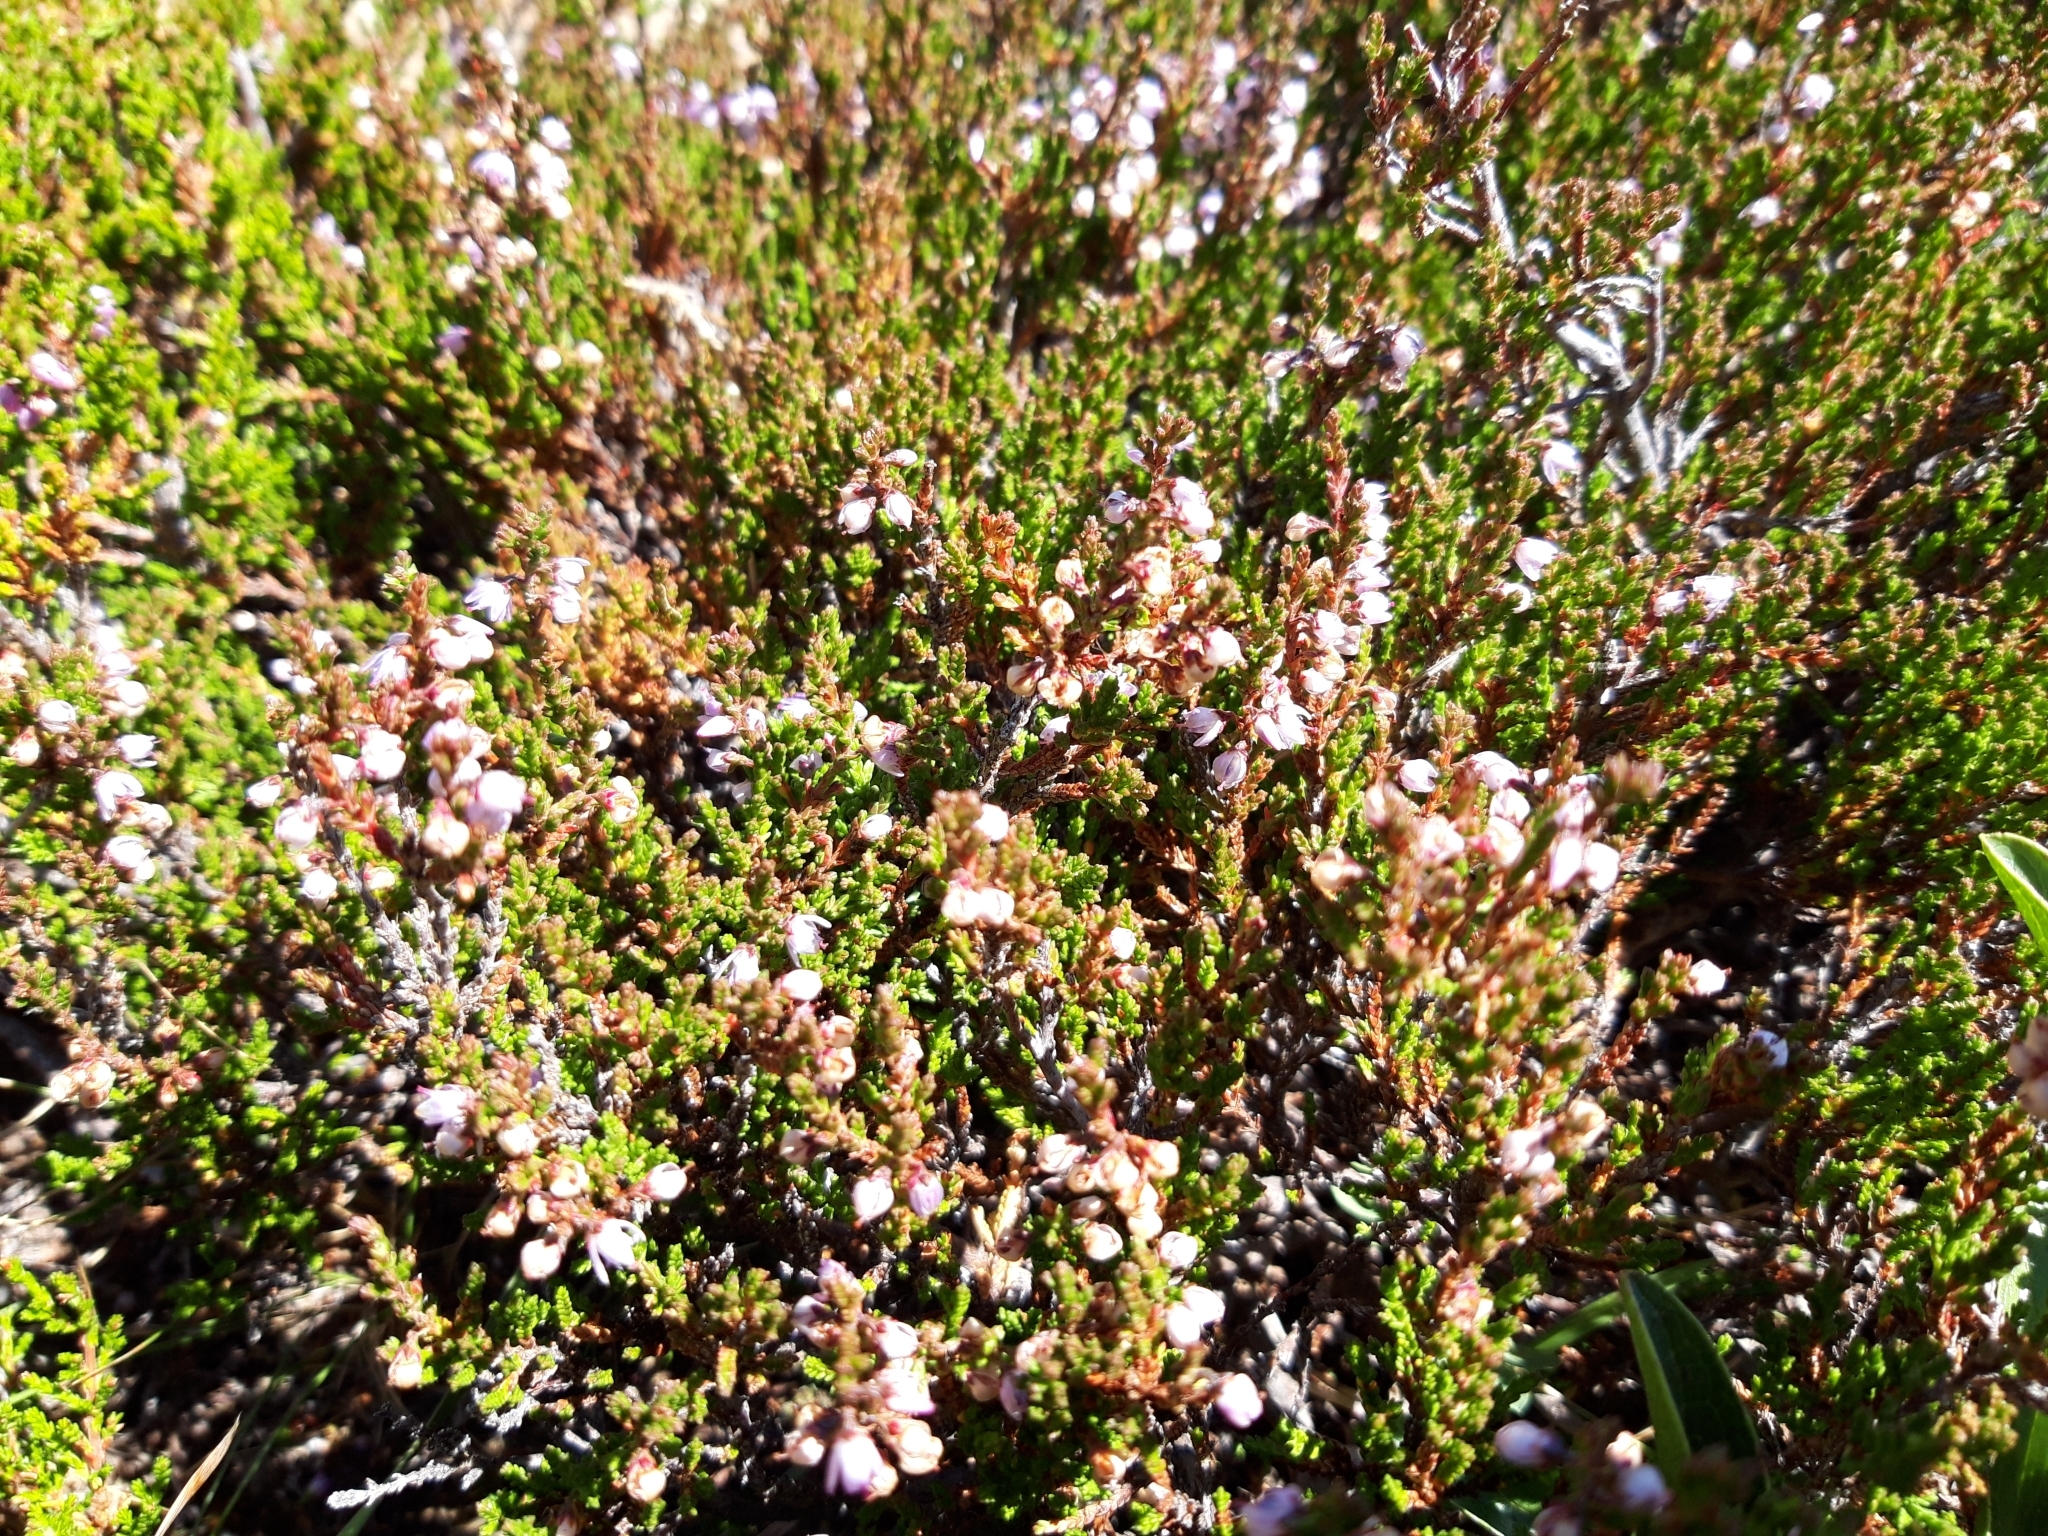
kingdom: Plantae
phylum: Tracheophyta
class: Magnoliopsida
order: Ericales
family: Ericaceae
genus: Calluna
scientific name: Calluna vulgaris
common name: Heather
